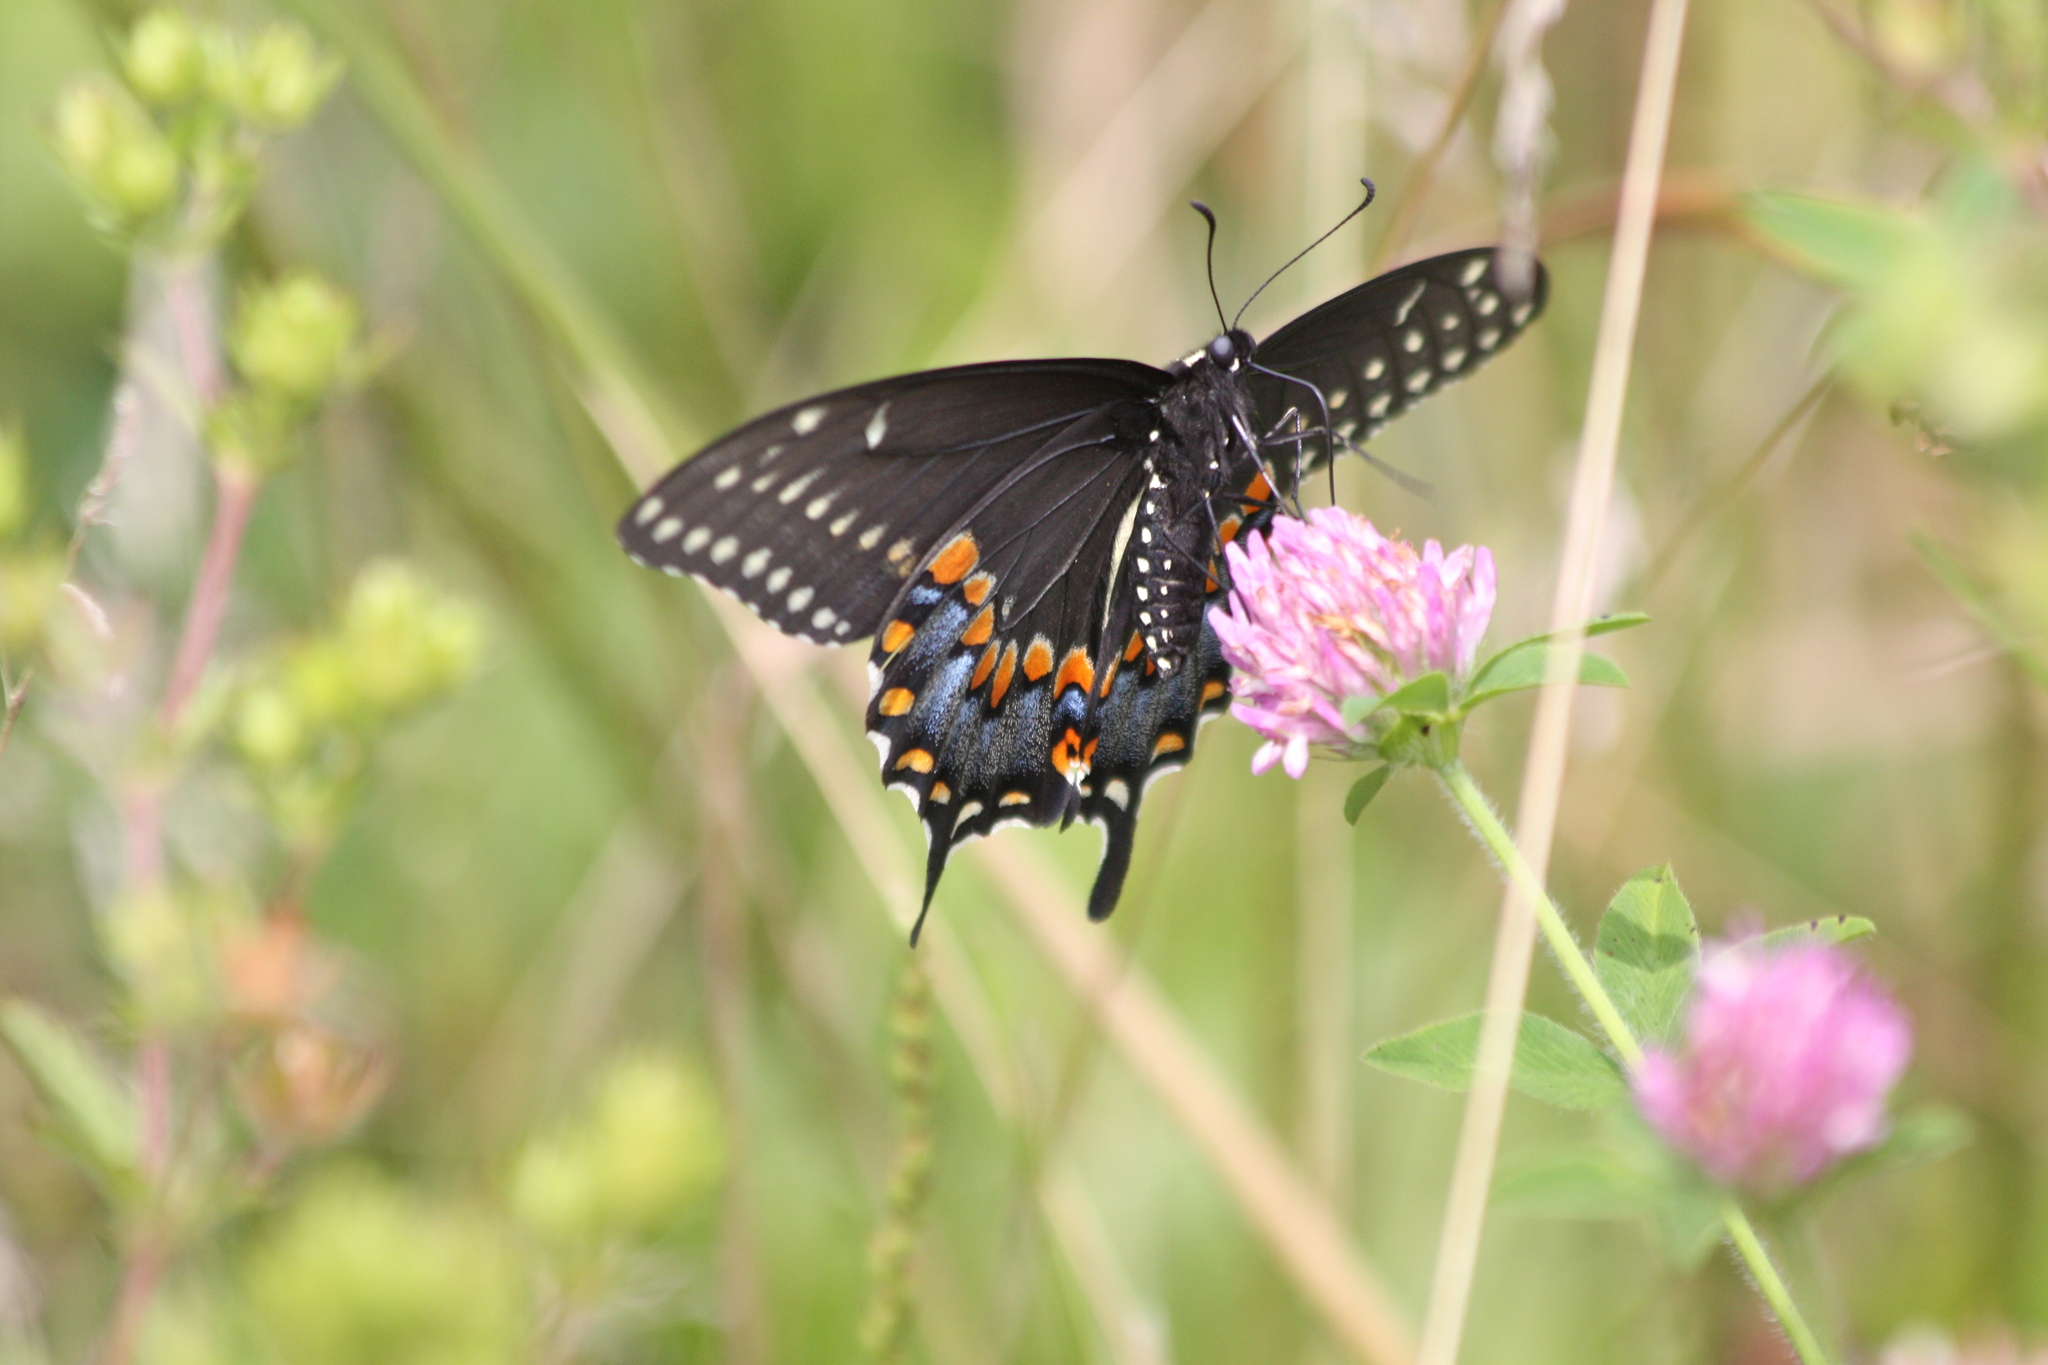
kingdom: Animalia
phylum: Arthropoda
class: Insecta
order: Lepidoptera
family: Papilionidae
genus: Papilio
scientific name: Papilio polyxenes
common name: Black swallowtail
